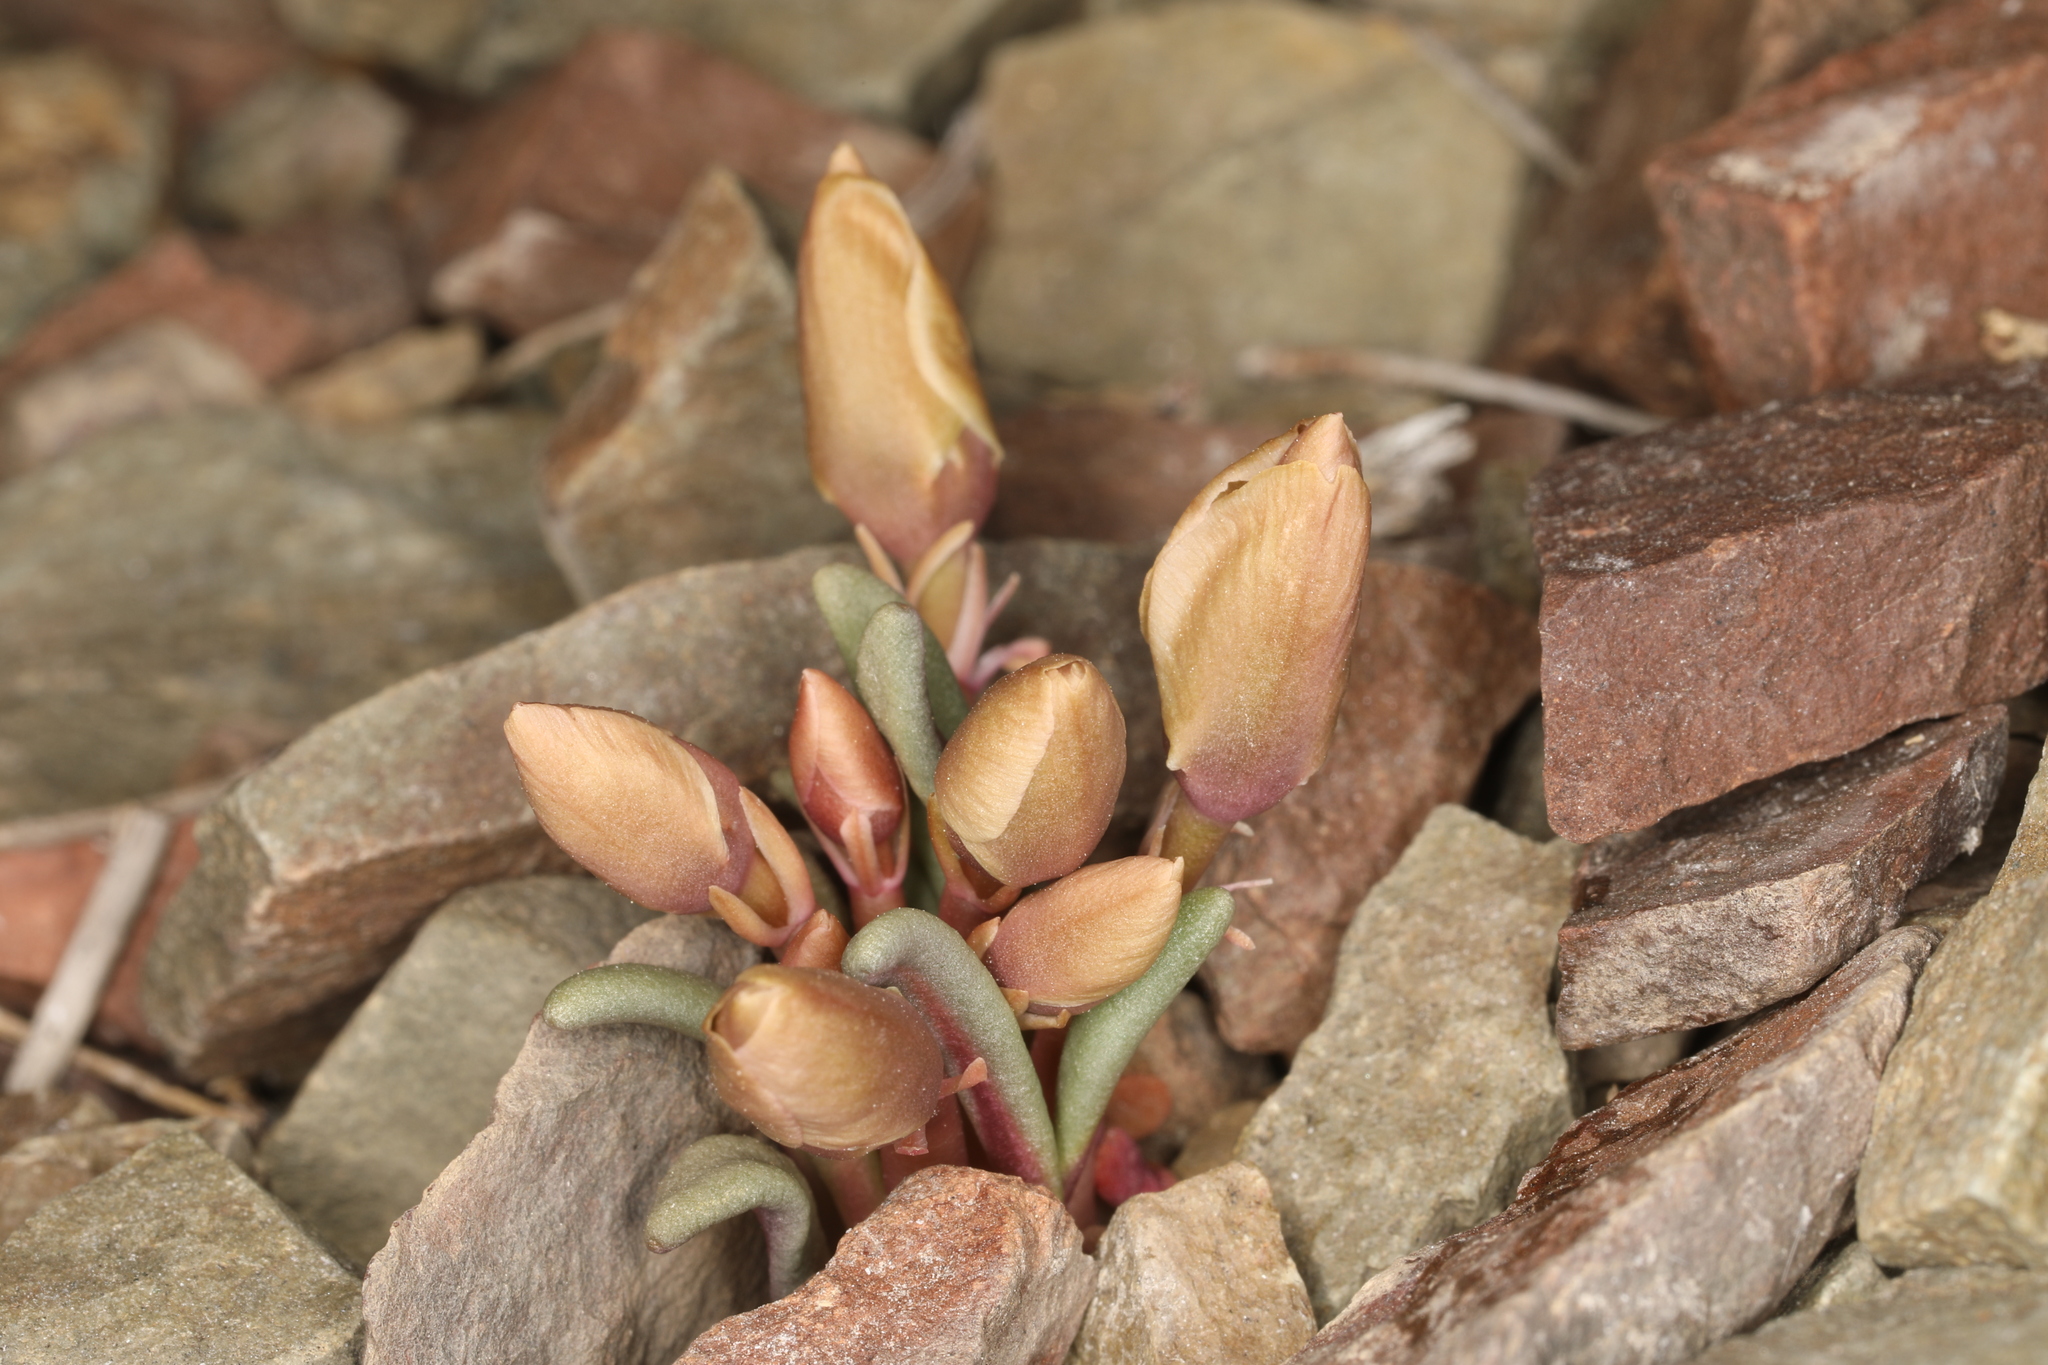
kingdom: Plantae
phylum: Tracheophyta
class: Magnoliopsida
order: Caryophyllales
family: Montiaceae
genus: Lewisia
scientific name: Lewisia rediviva
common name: Bitter-root
